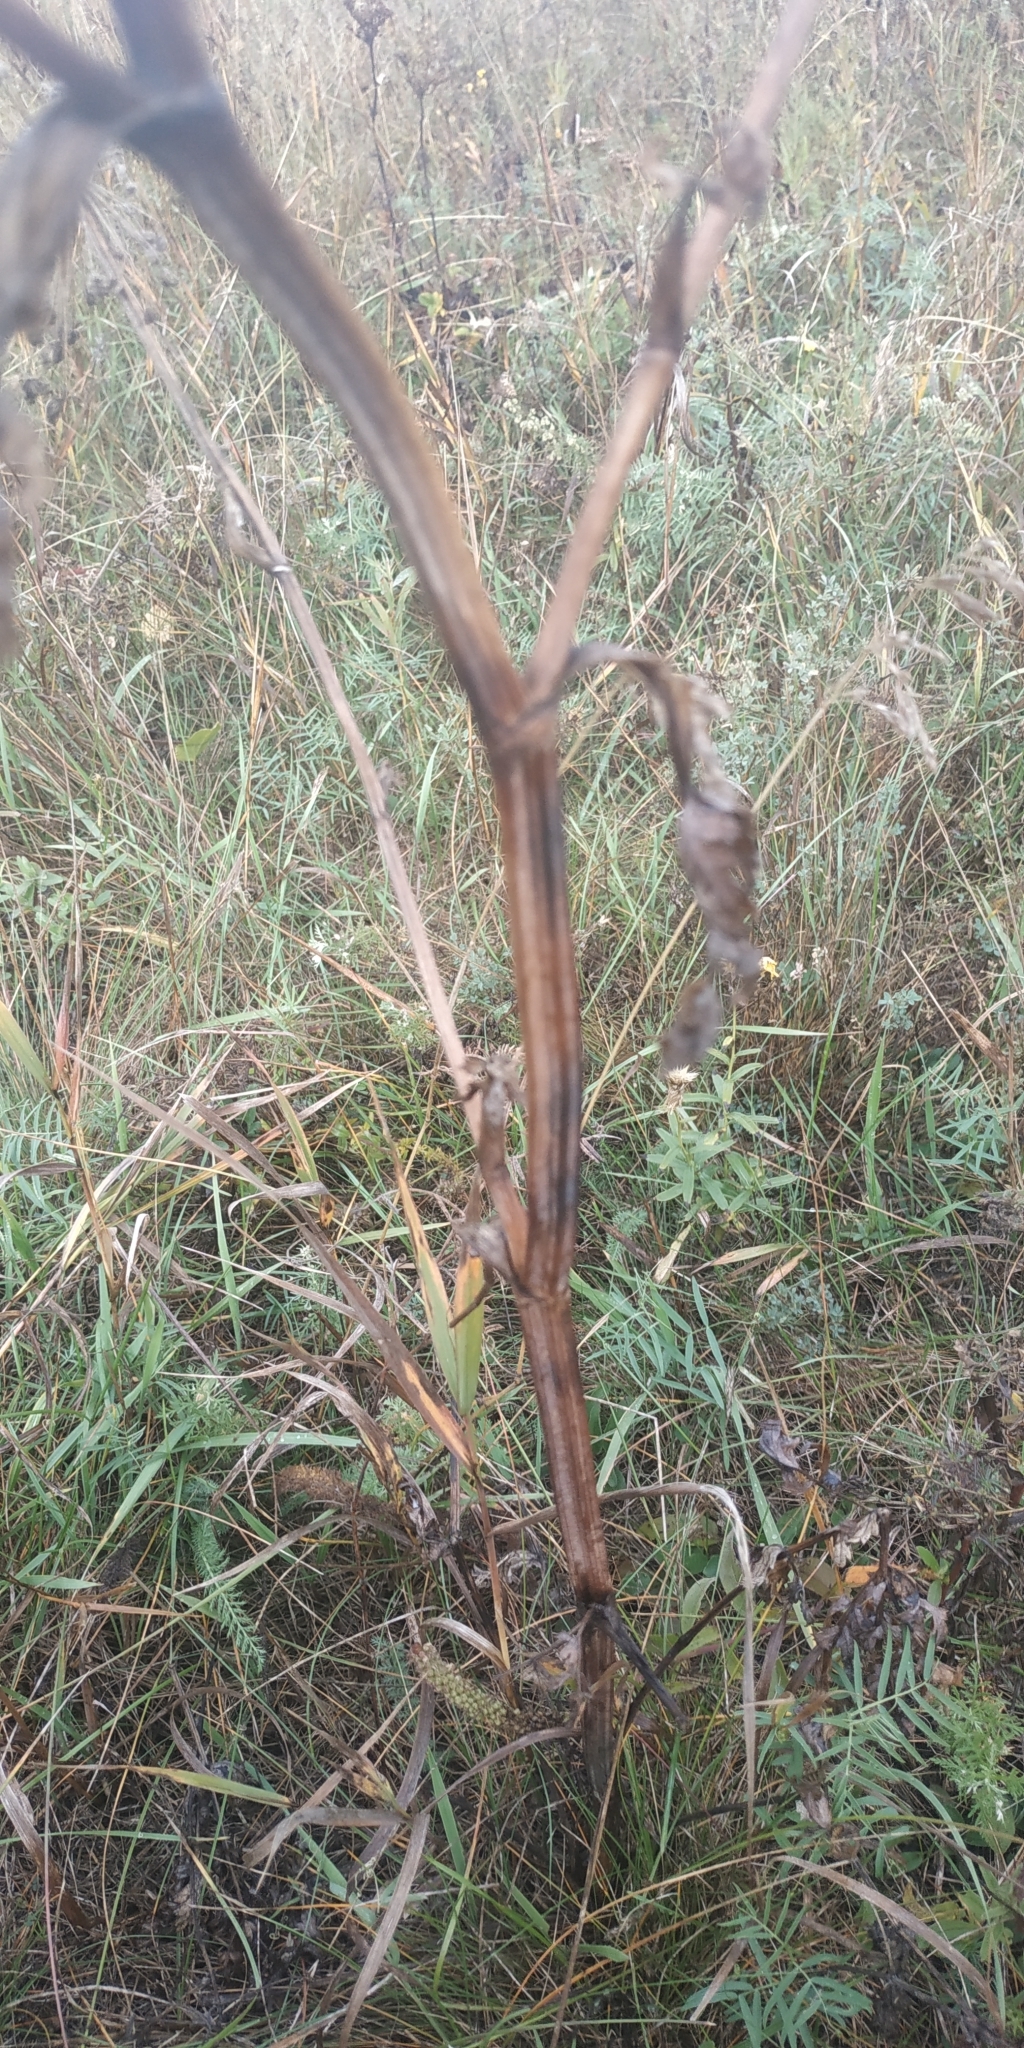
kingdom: Plantae
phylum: Tracheophyta
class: Magnoliopsida
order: Apiales
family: Apiaceae
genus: Seseli
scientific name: Seseli libanotis
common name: Mooncarrot
